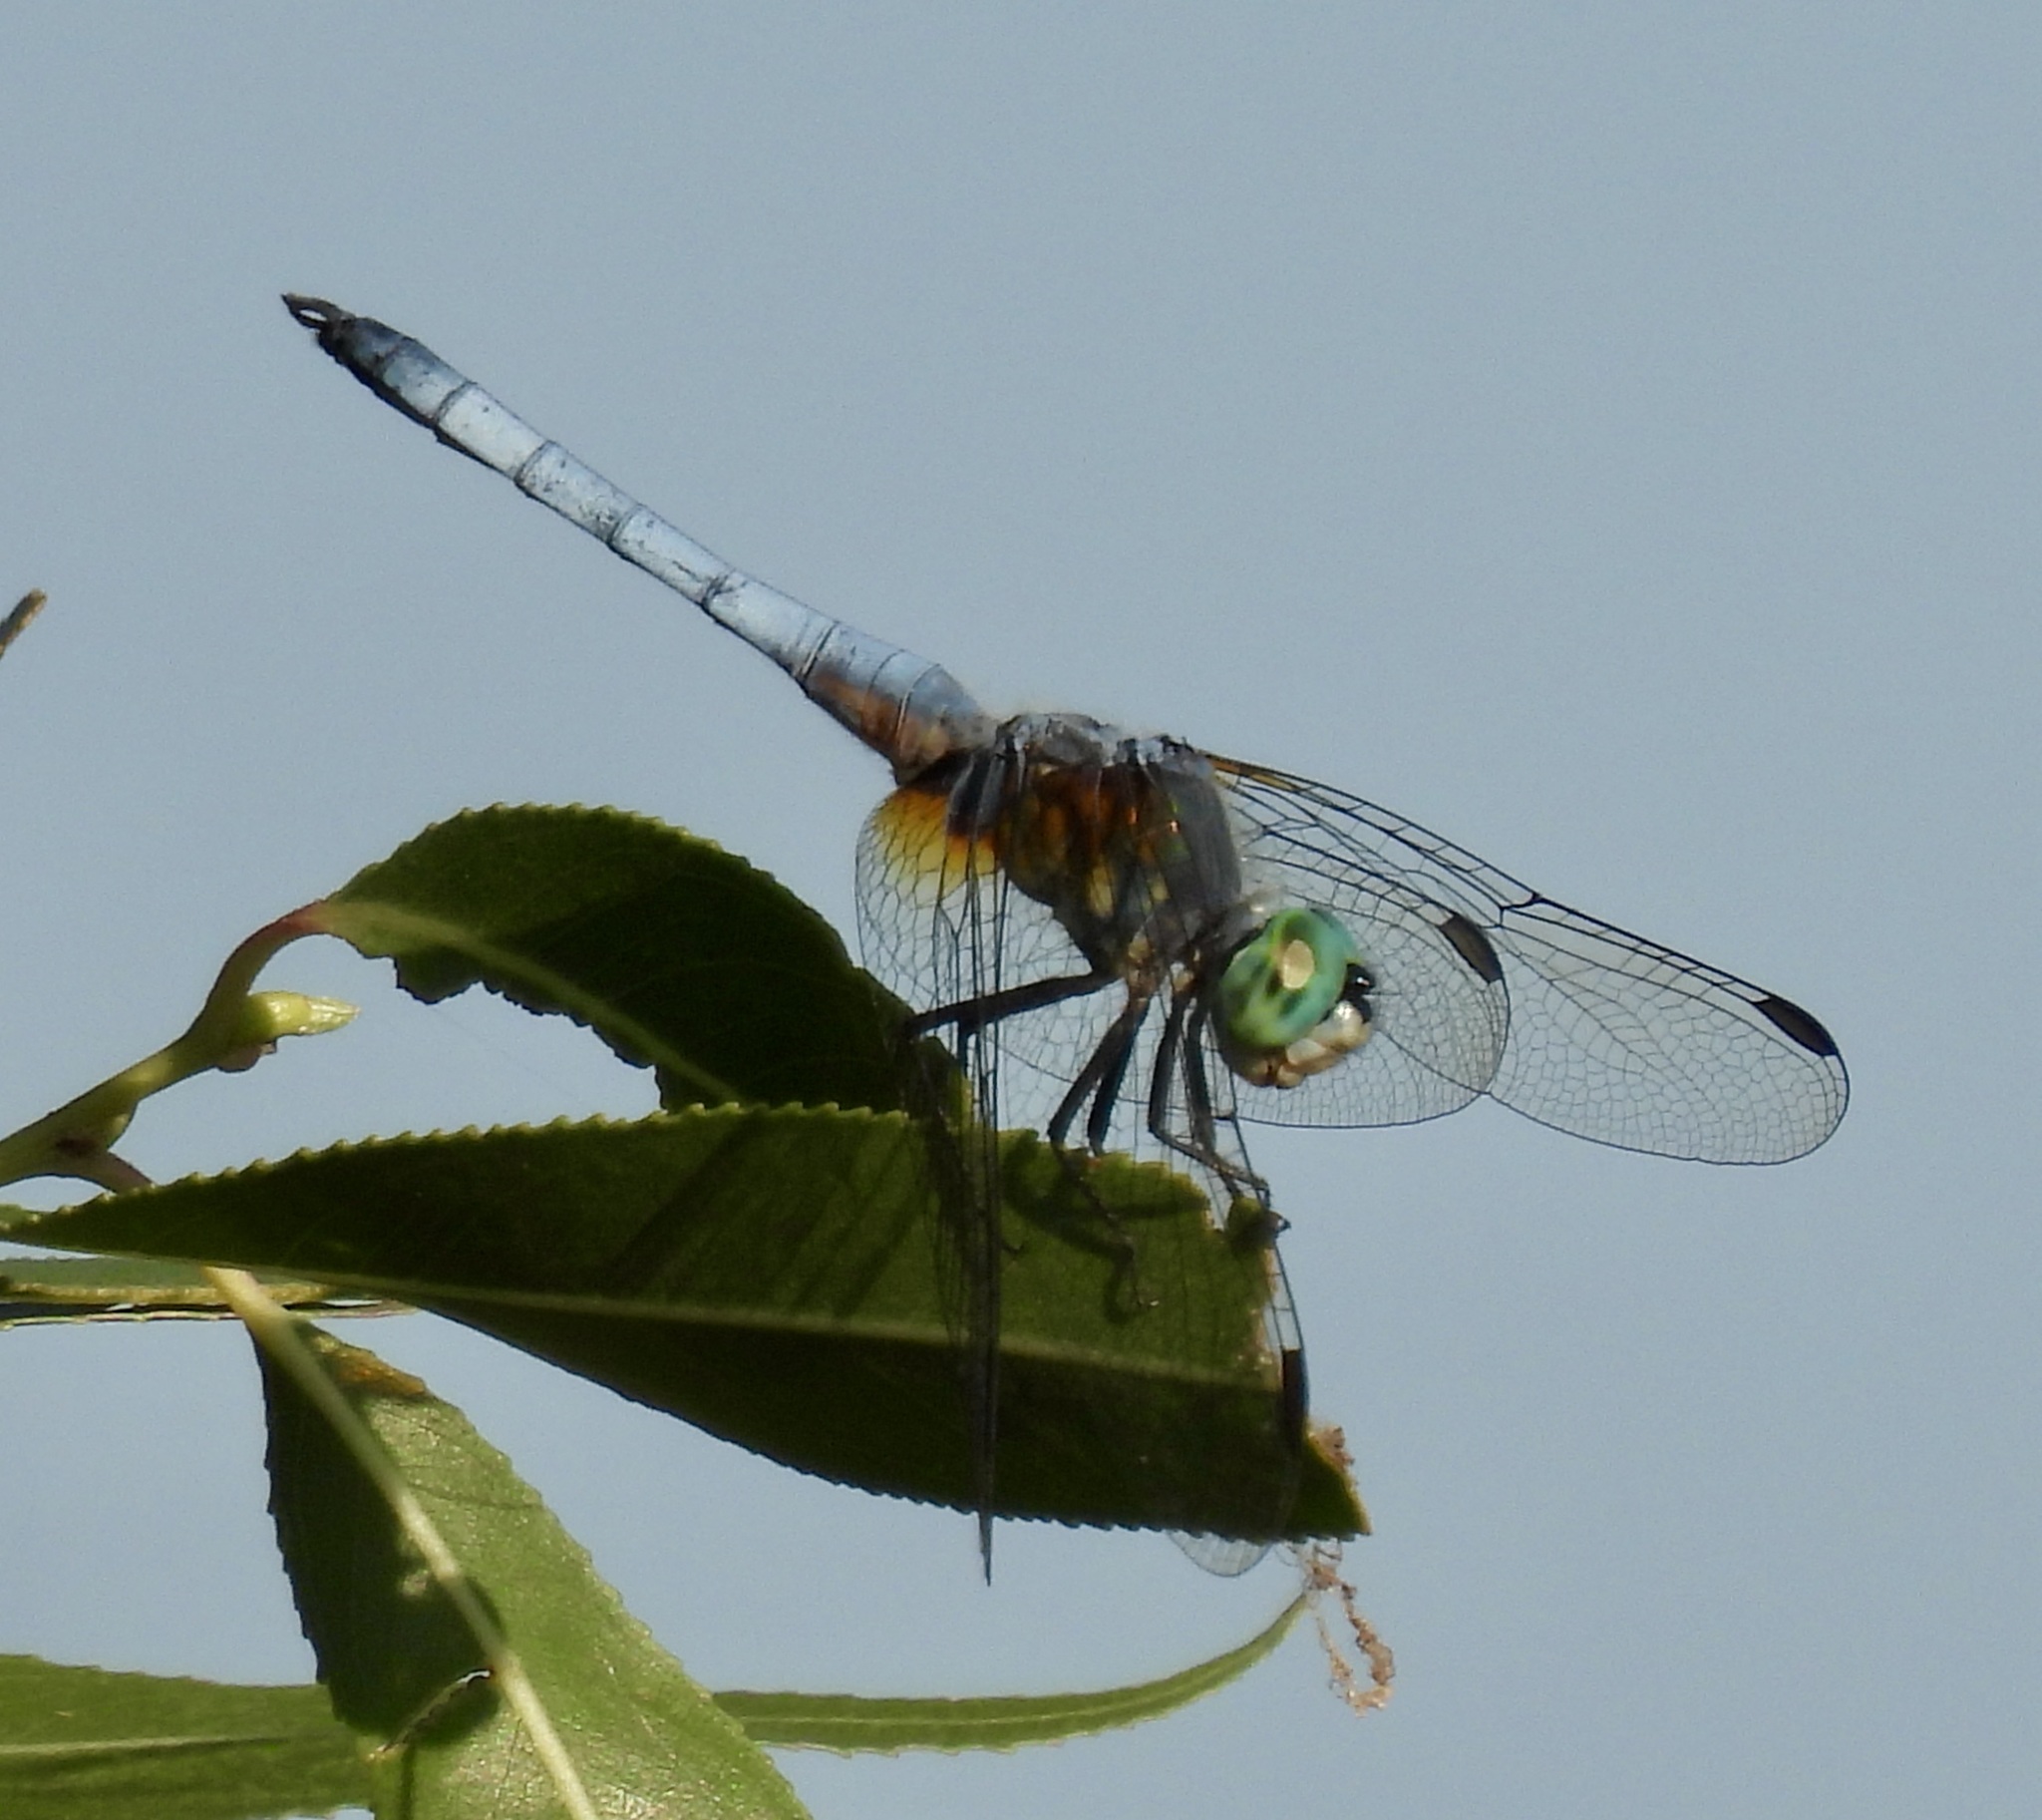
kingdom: Animalia
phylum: Arthropoda
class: Insecta
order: Odonata
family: Libellulidae
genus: Pachydiplax
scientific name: Pachydiplax longipennis
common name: Blue dasher
